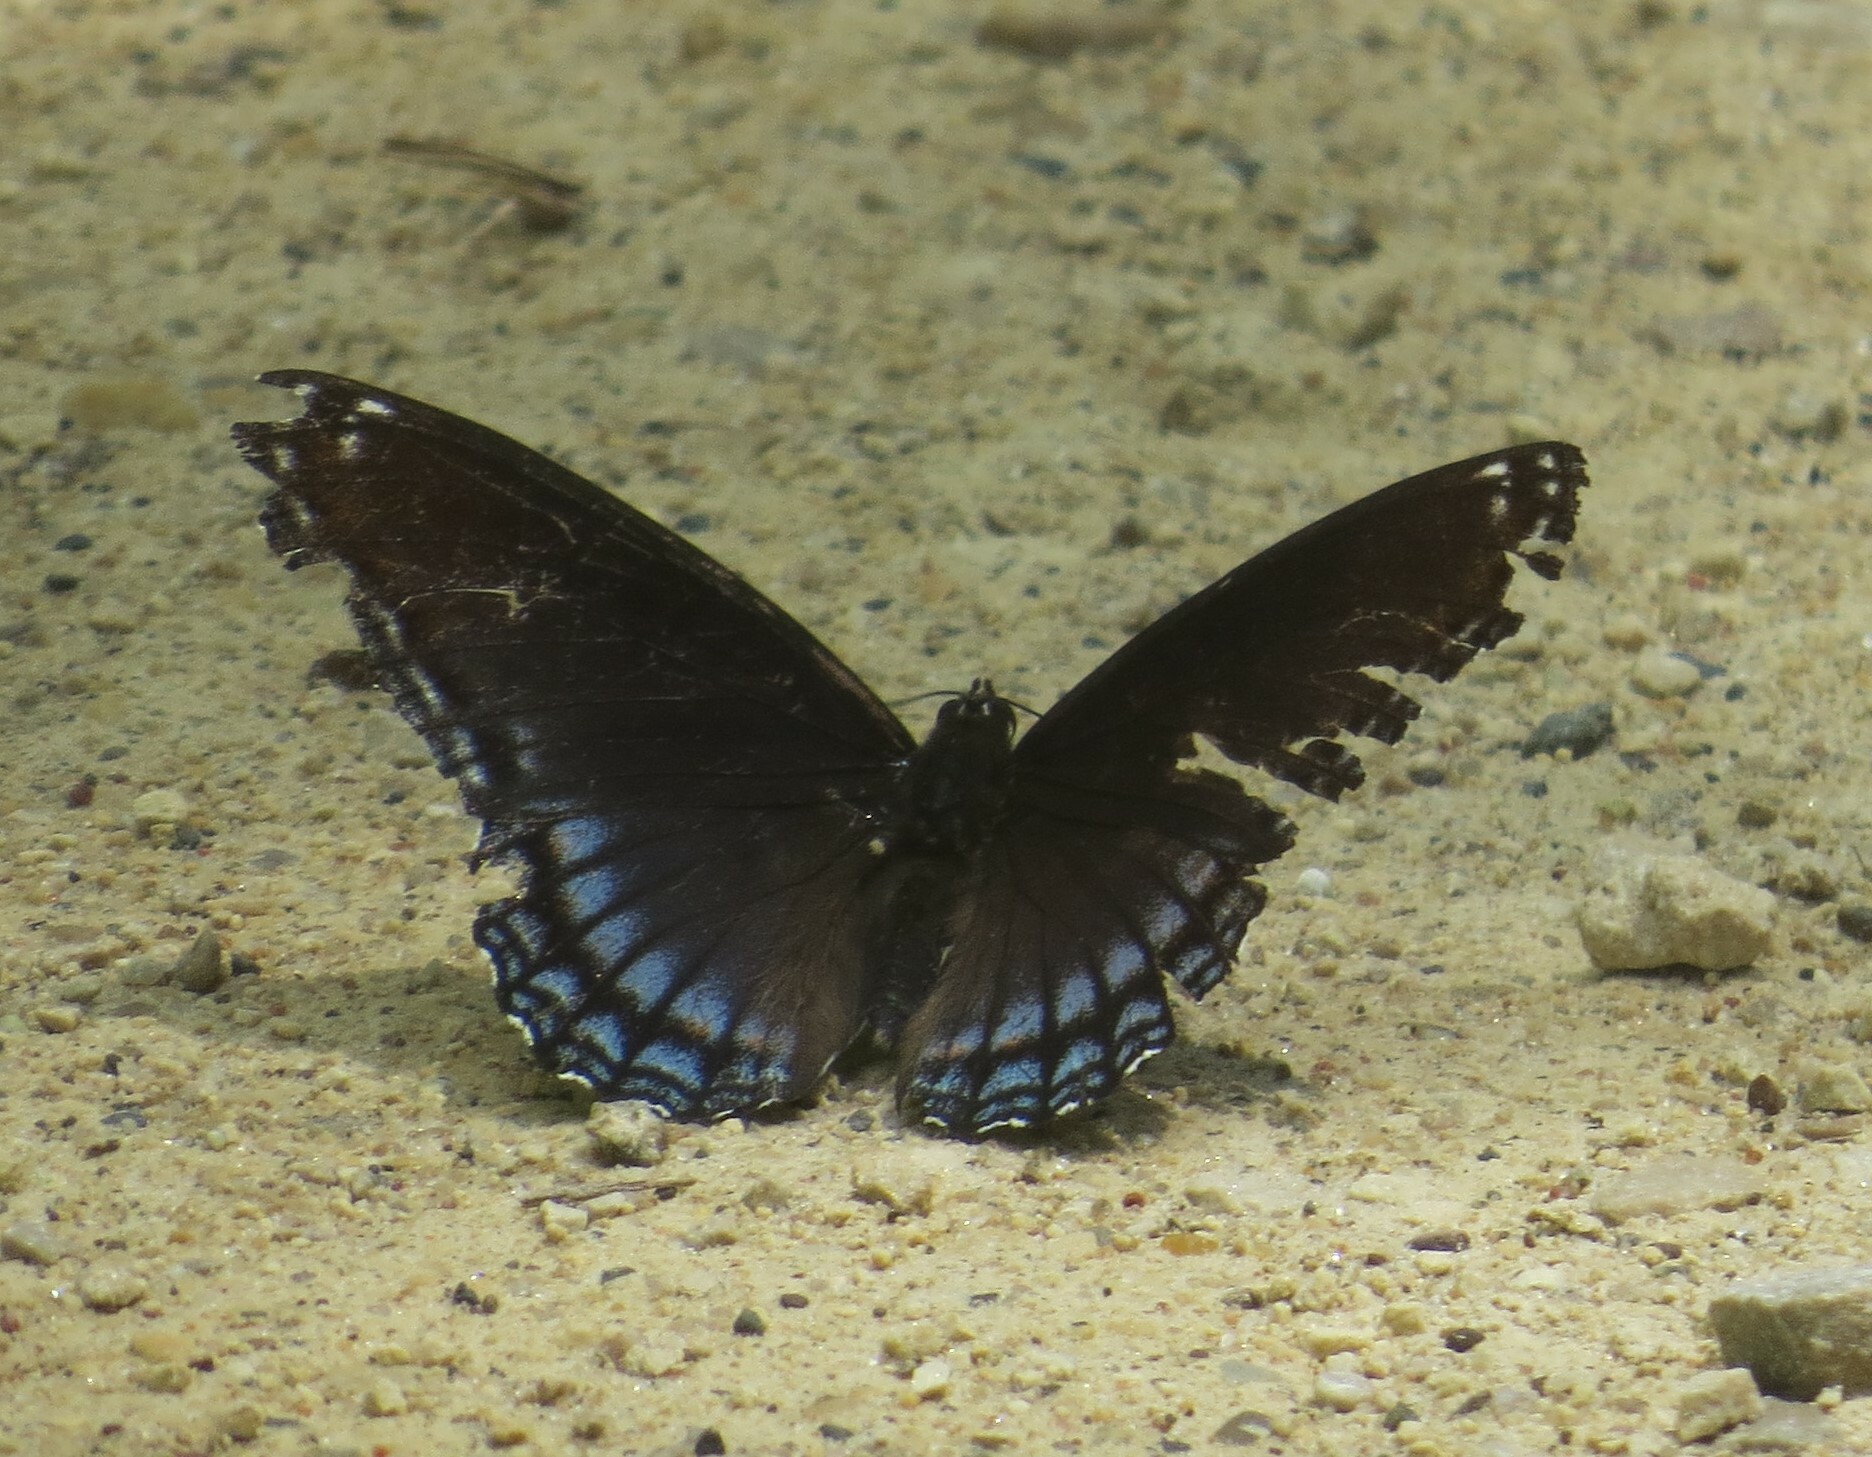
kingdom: Animalia
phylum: Arthropoda
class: Insecta
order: Lepidoptera
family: Nymphalidae
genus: Limenitis
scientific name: Limenitis arthemis
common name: Red-spotted admiral
